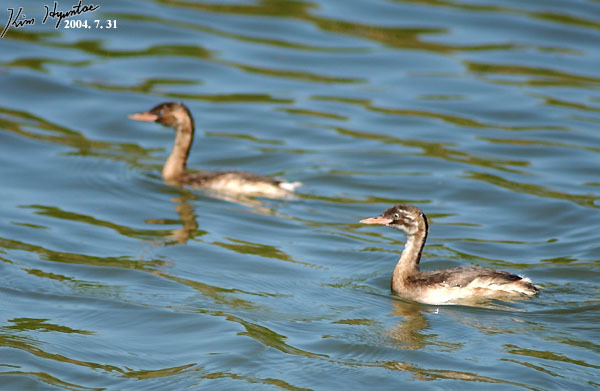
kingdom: Animalia
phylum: Chordata
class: Aves
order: Podicipediformes
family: Podicipedidae
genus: Tachybaptus
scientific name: Tachybaptus ruficollis
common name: Little grebe
